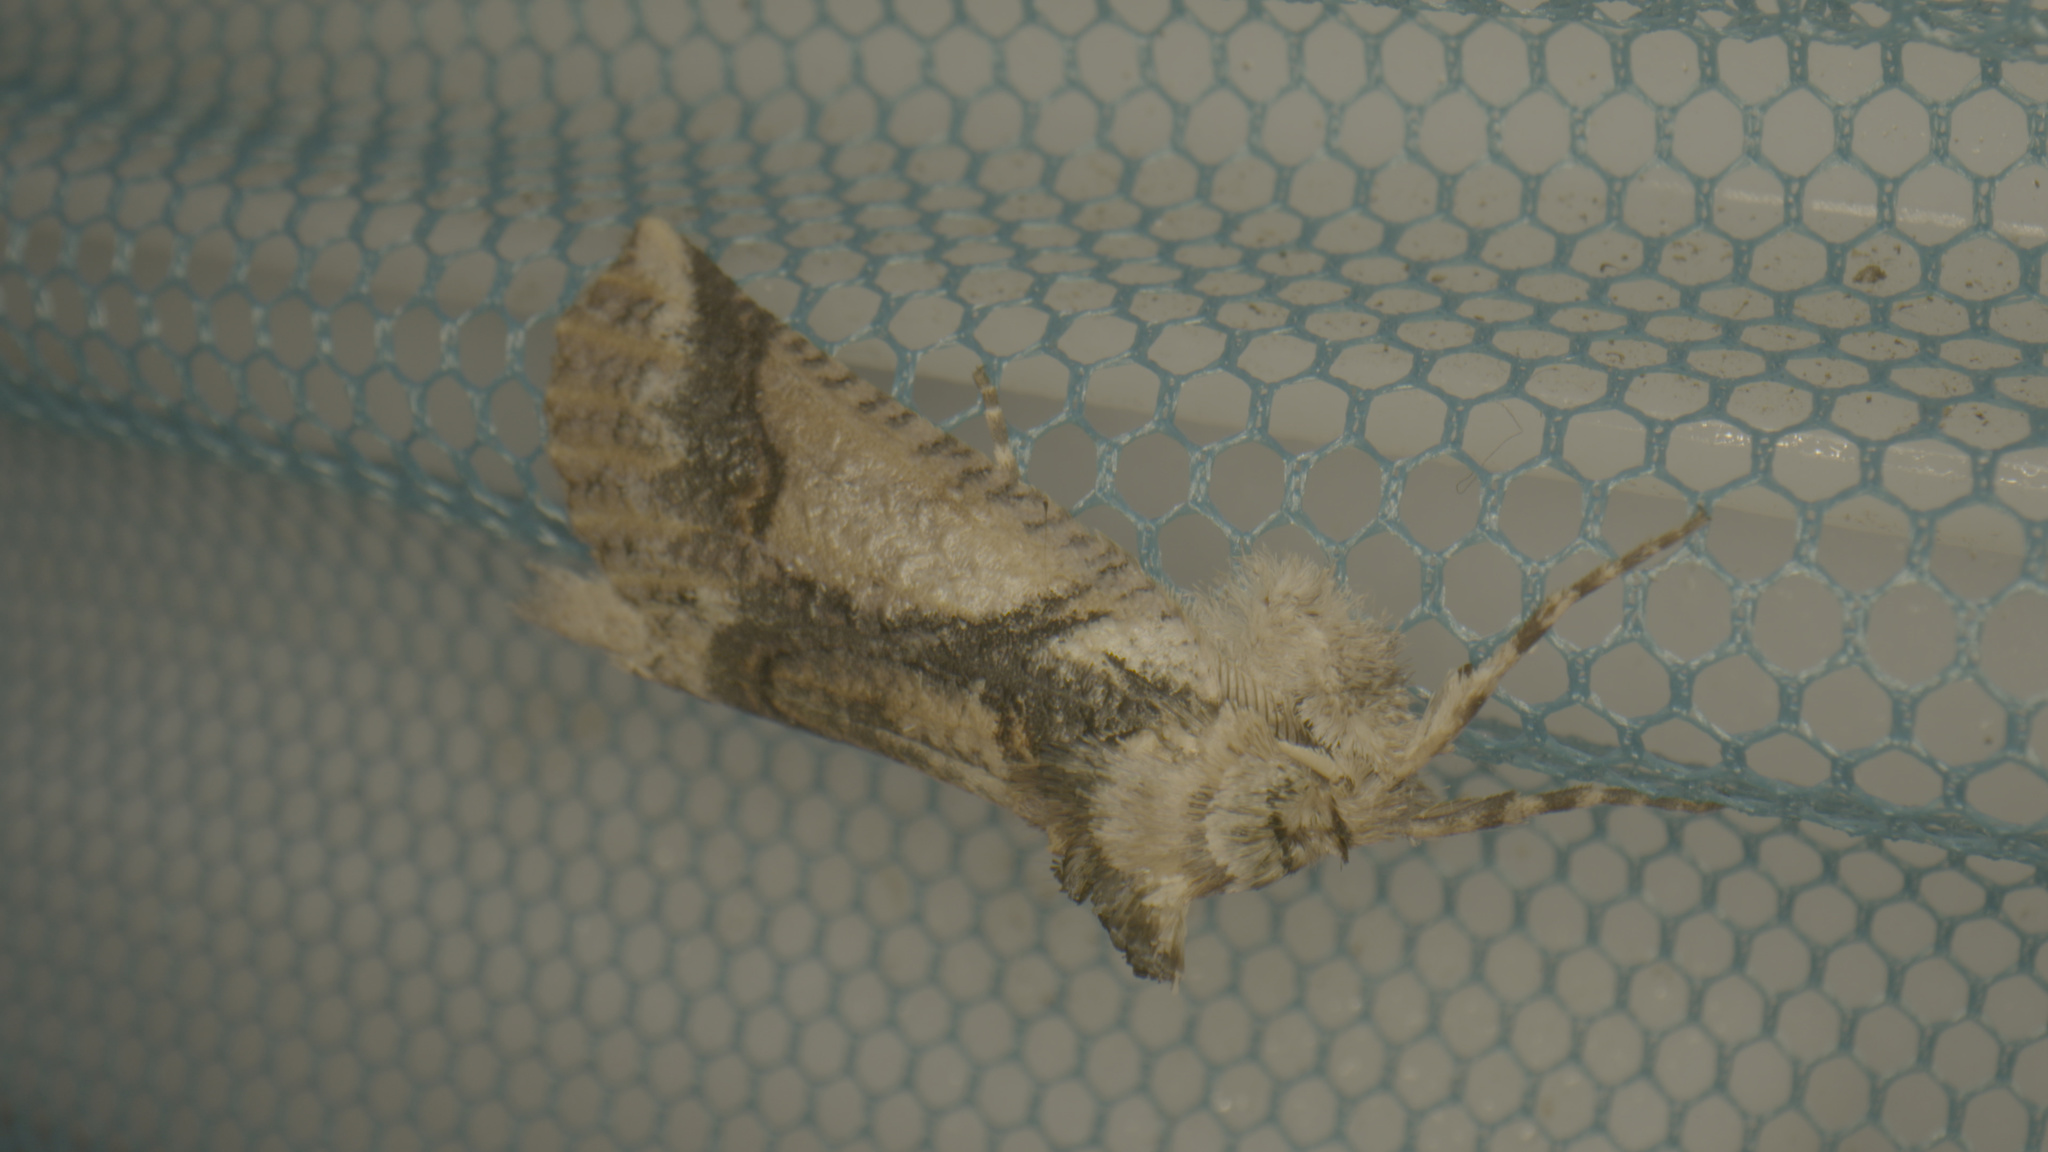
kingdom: Animalia
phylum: Arthropoda
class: Insecta
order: Lepidoptera
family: Geometridae
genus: Declana
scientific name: Declana
